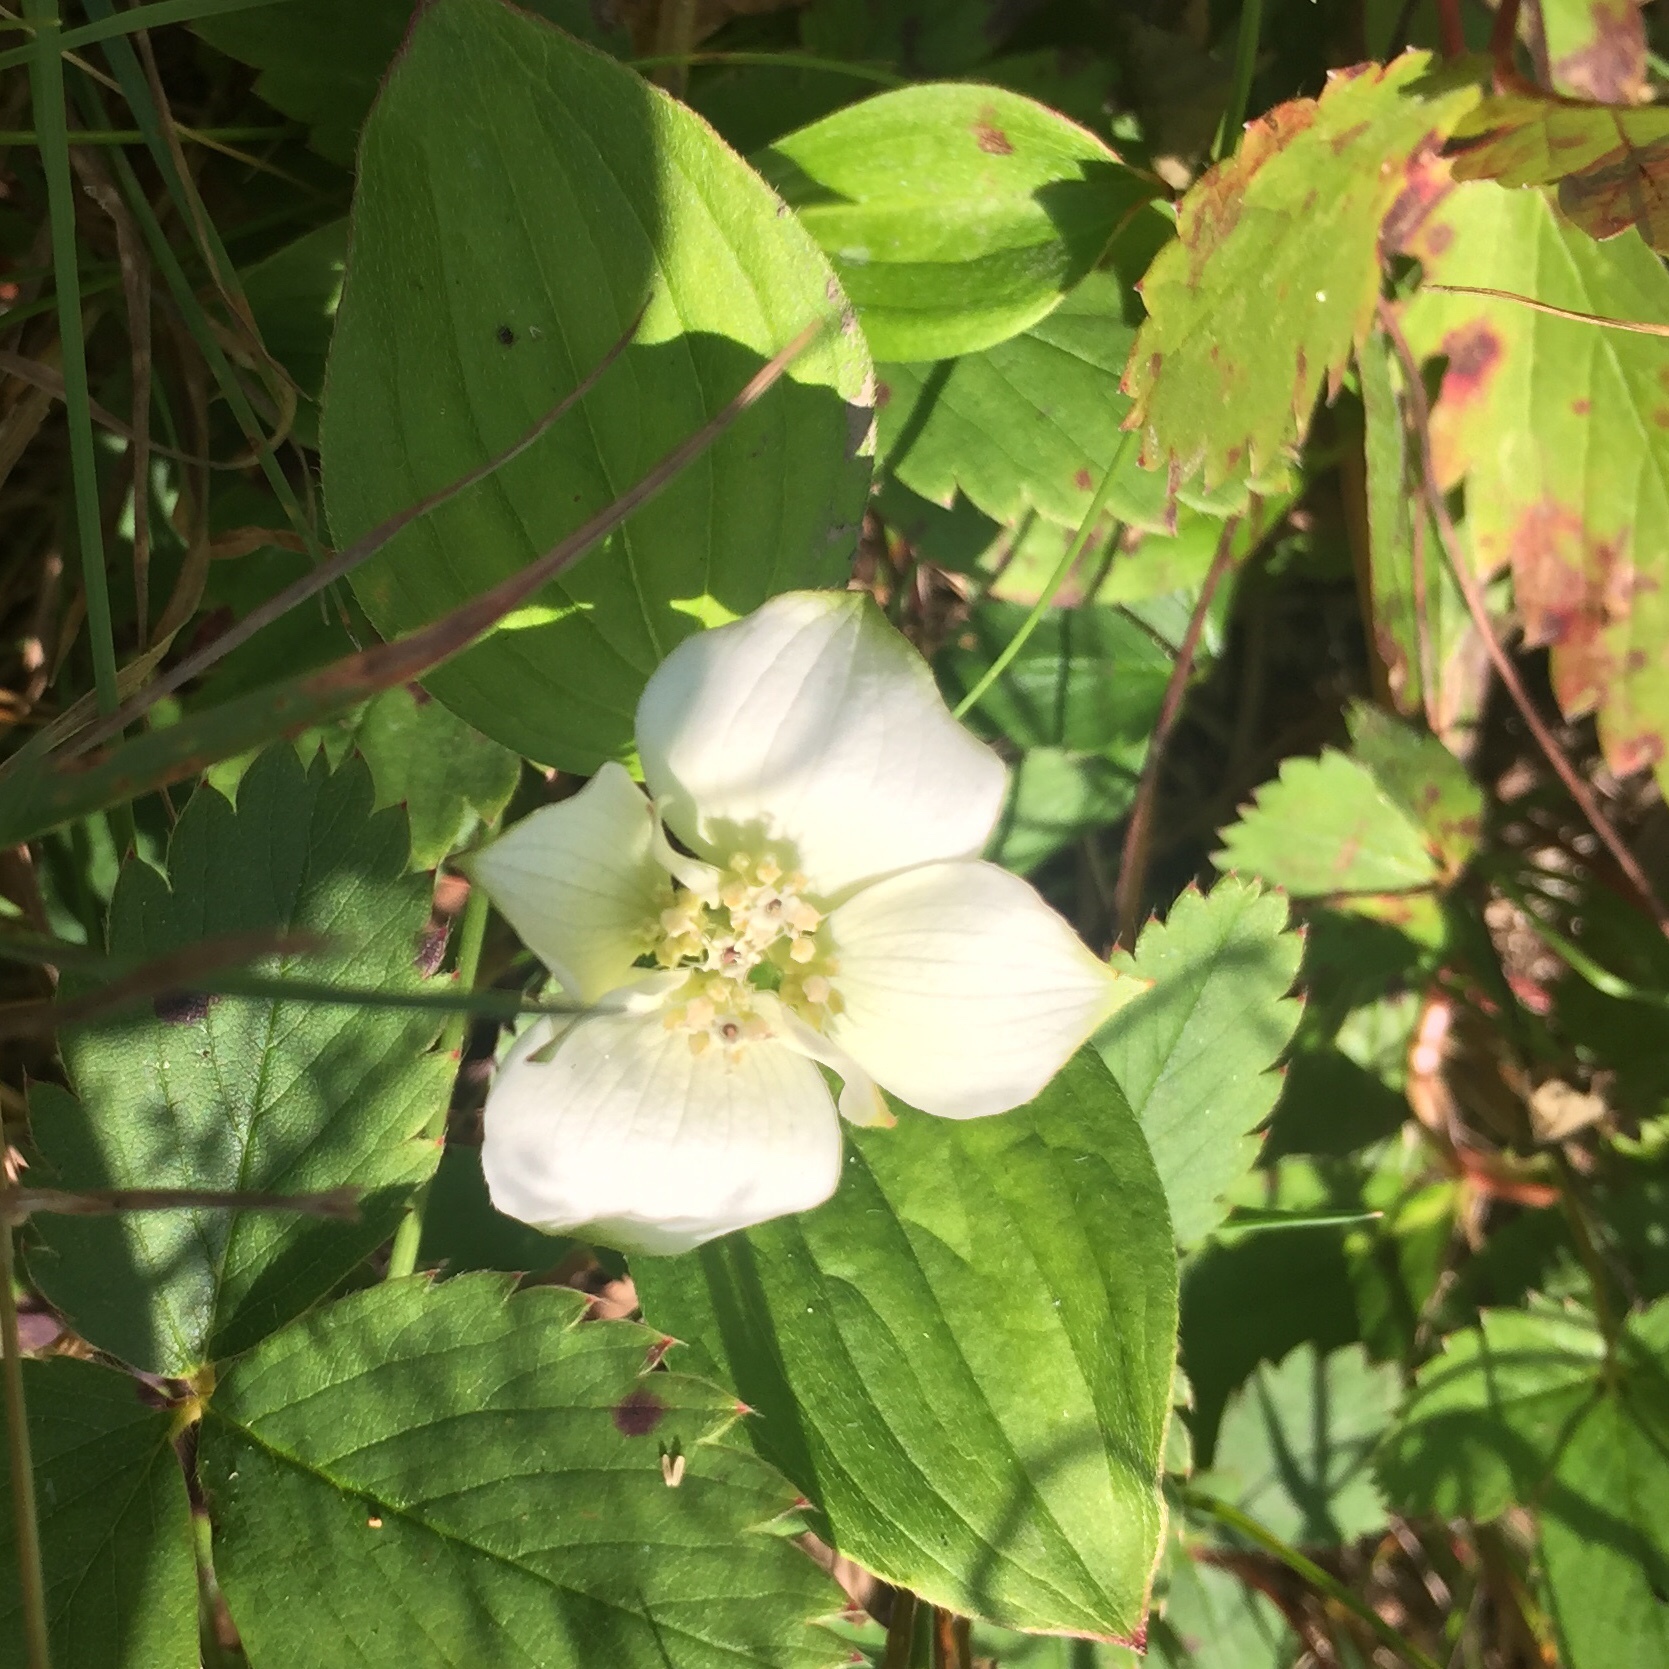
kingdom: Plantae
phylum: Tracheophyta
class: Magnoliopsida
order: Cornales
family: Cornaceae
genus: Cornus
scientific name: Cornus canadensis
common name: Creeping dogwood
